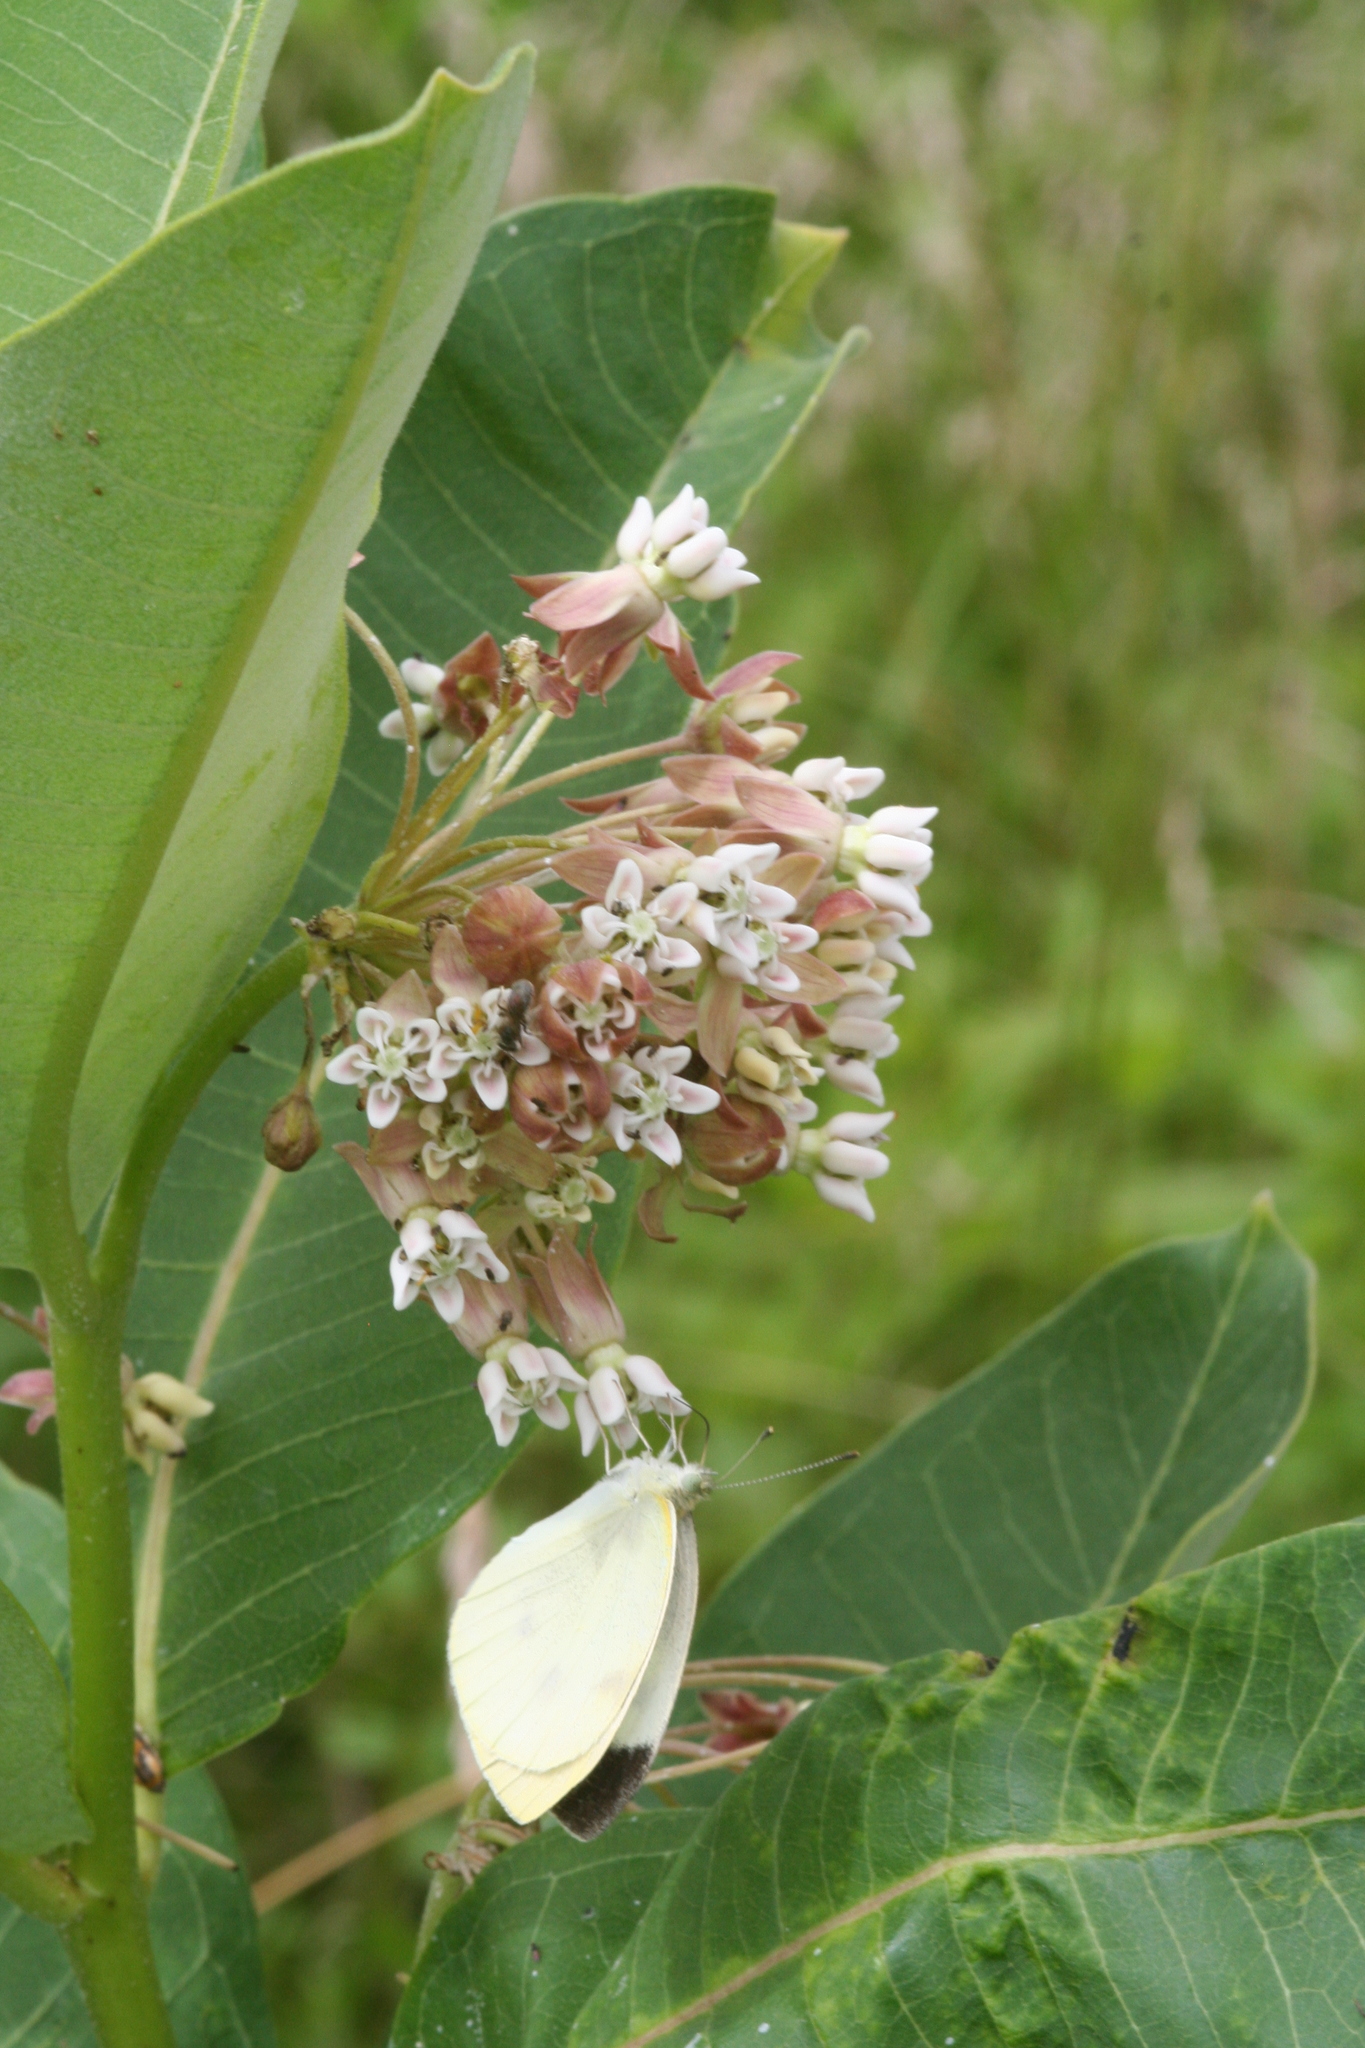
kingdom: Plantae
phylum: Tracheophyta
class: Magnoliopsida
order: Gentianales
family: Apocynaceae
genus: Asclepias
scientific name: Asclepias syriaca
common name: Common milkweed
